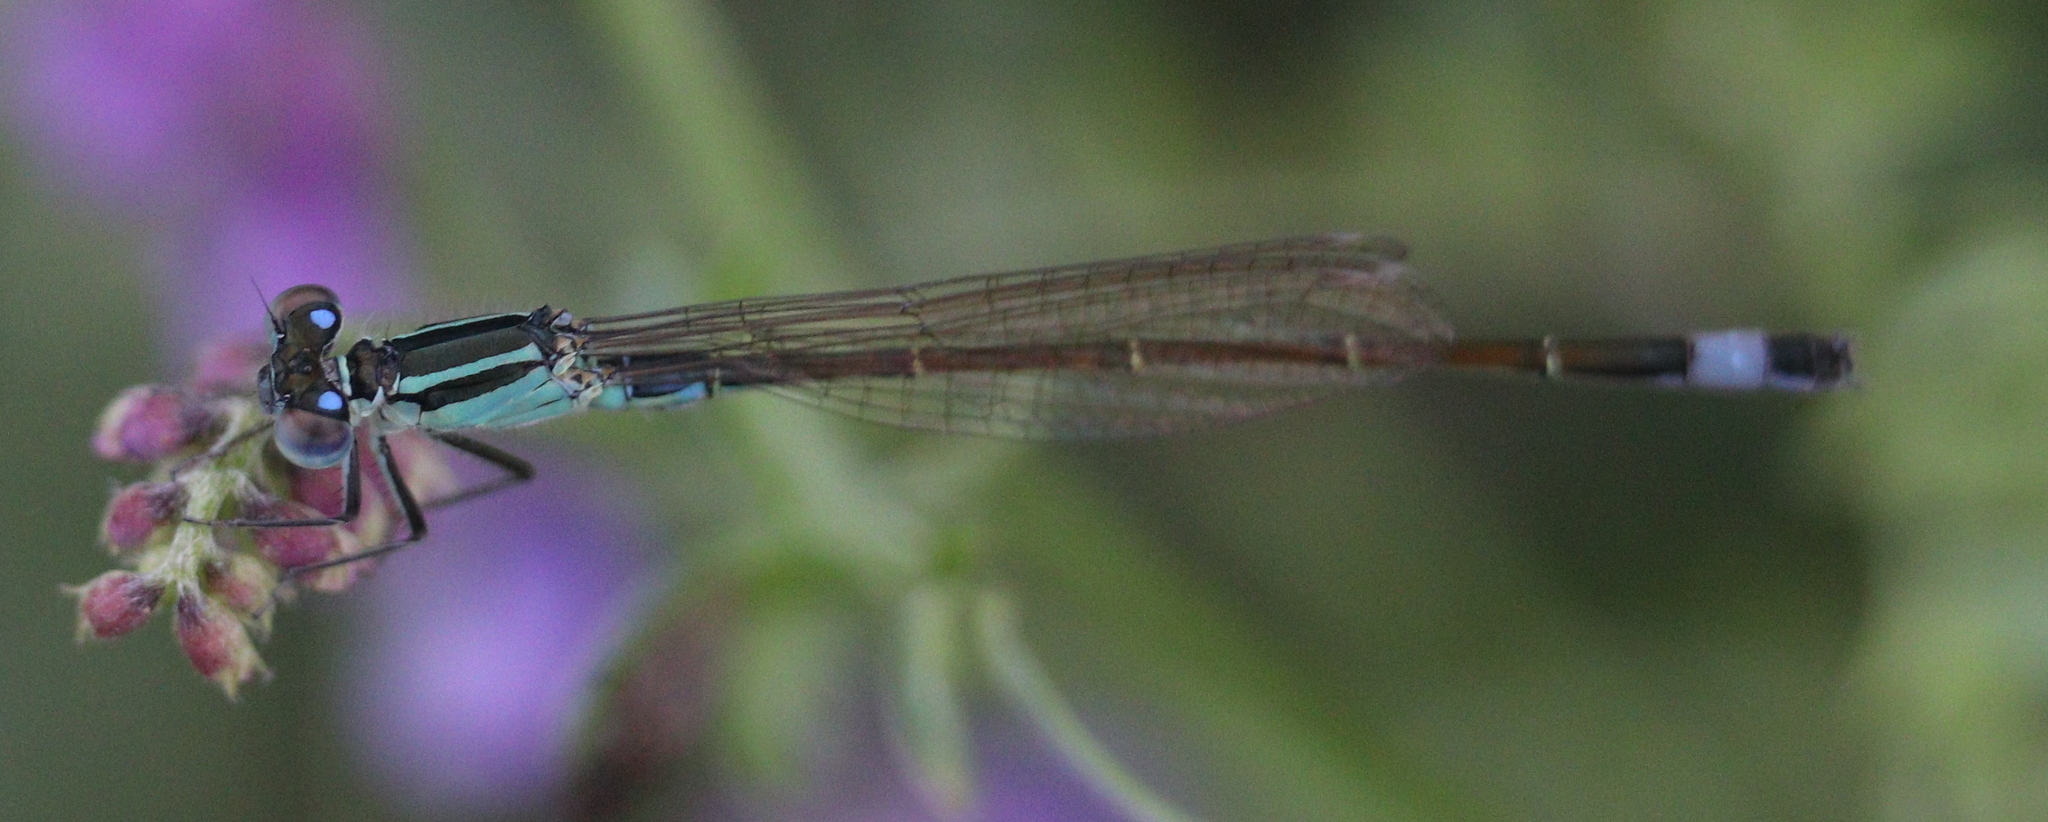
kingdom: Animalia
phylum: Arthropoda
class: Insecta
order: Odonata
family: Coenagrionidae
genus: Ischnura
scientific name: Ischnura elegans
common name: Blue-tailed damselfly
